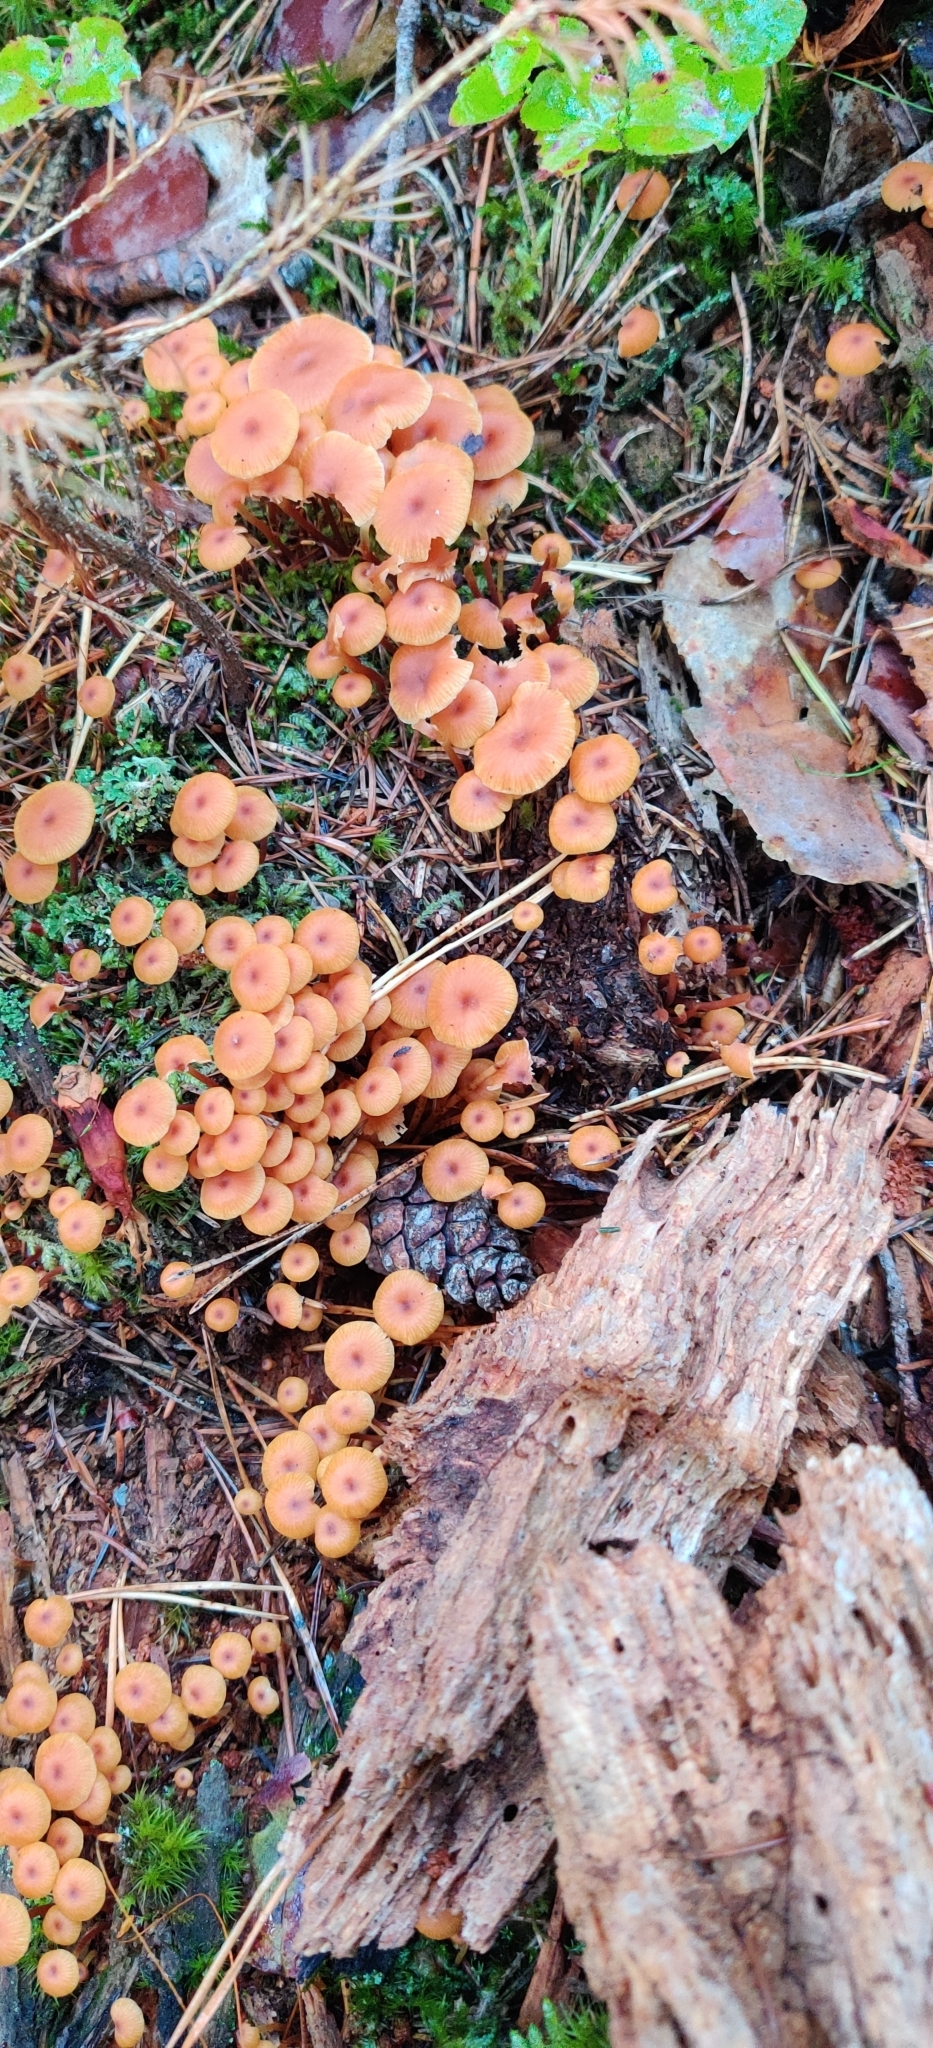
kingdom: Fungi
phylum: Basidiomycota
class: Agaricomycetes
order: Agaricales
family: Mycenaceae
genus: Xeromphalina
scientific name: Xeromphalina campanella
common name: Pinewood gingertail
